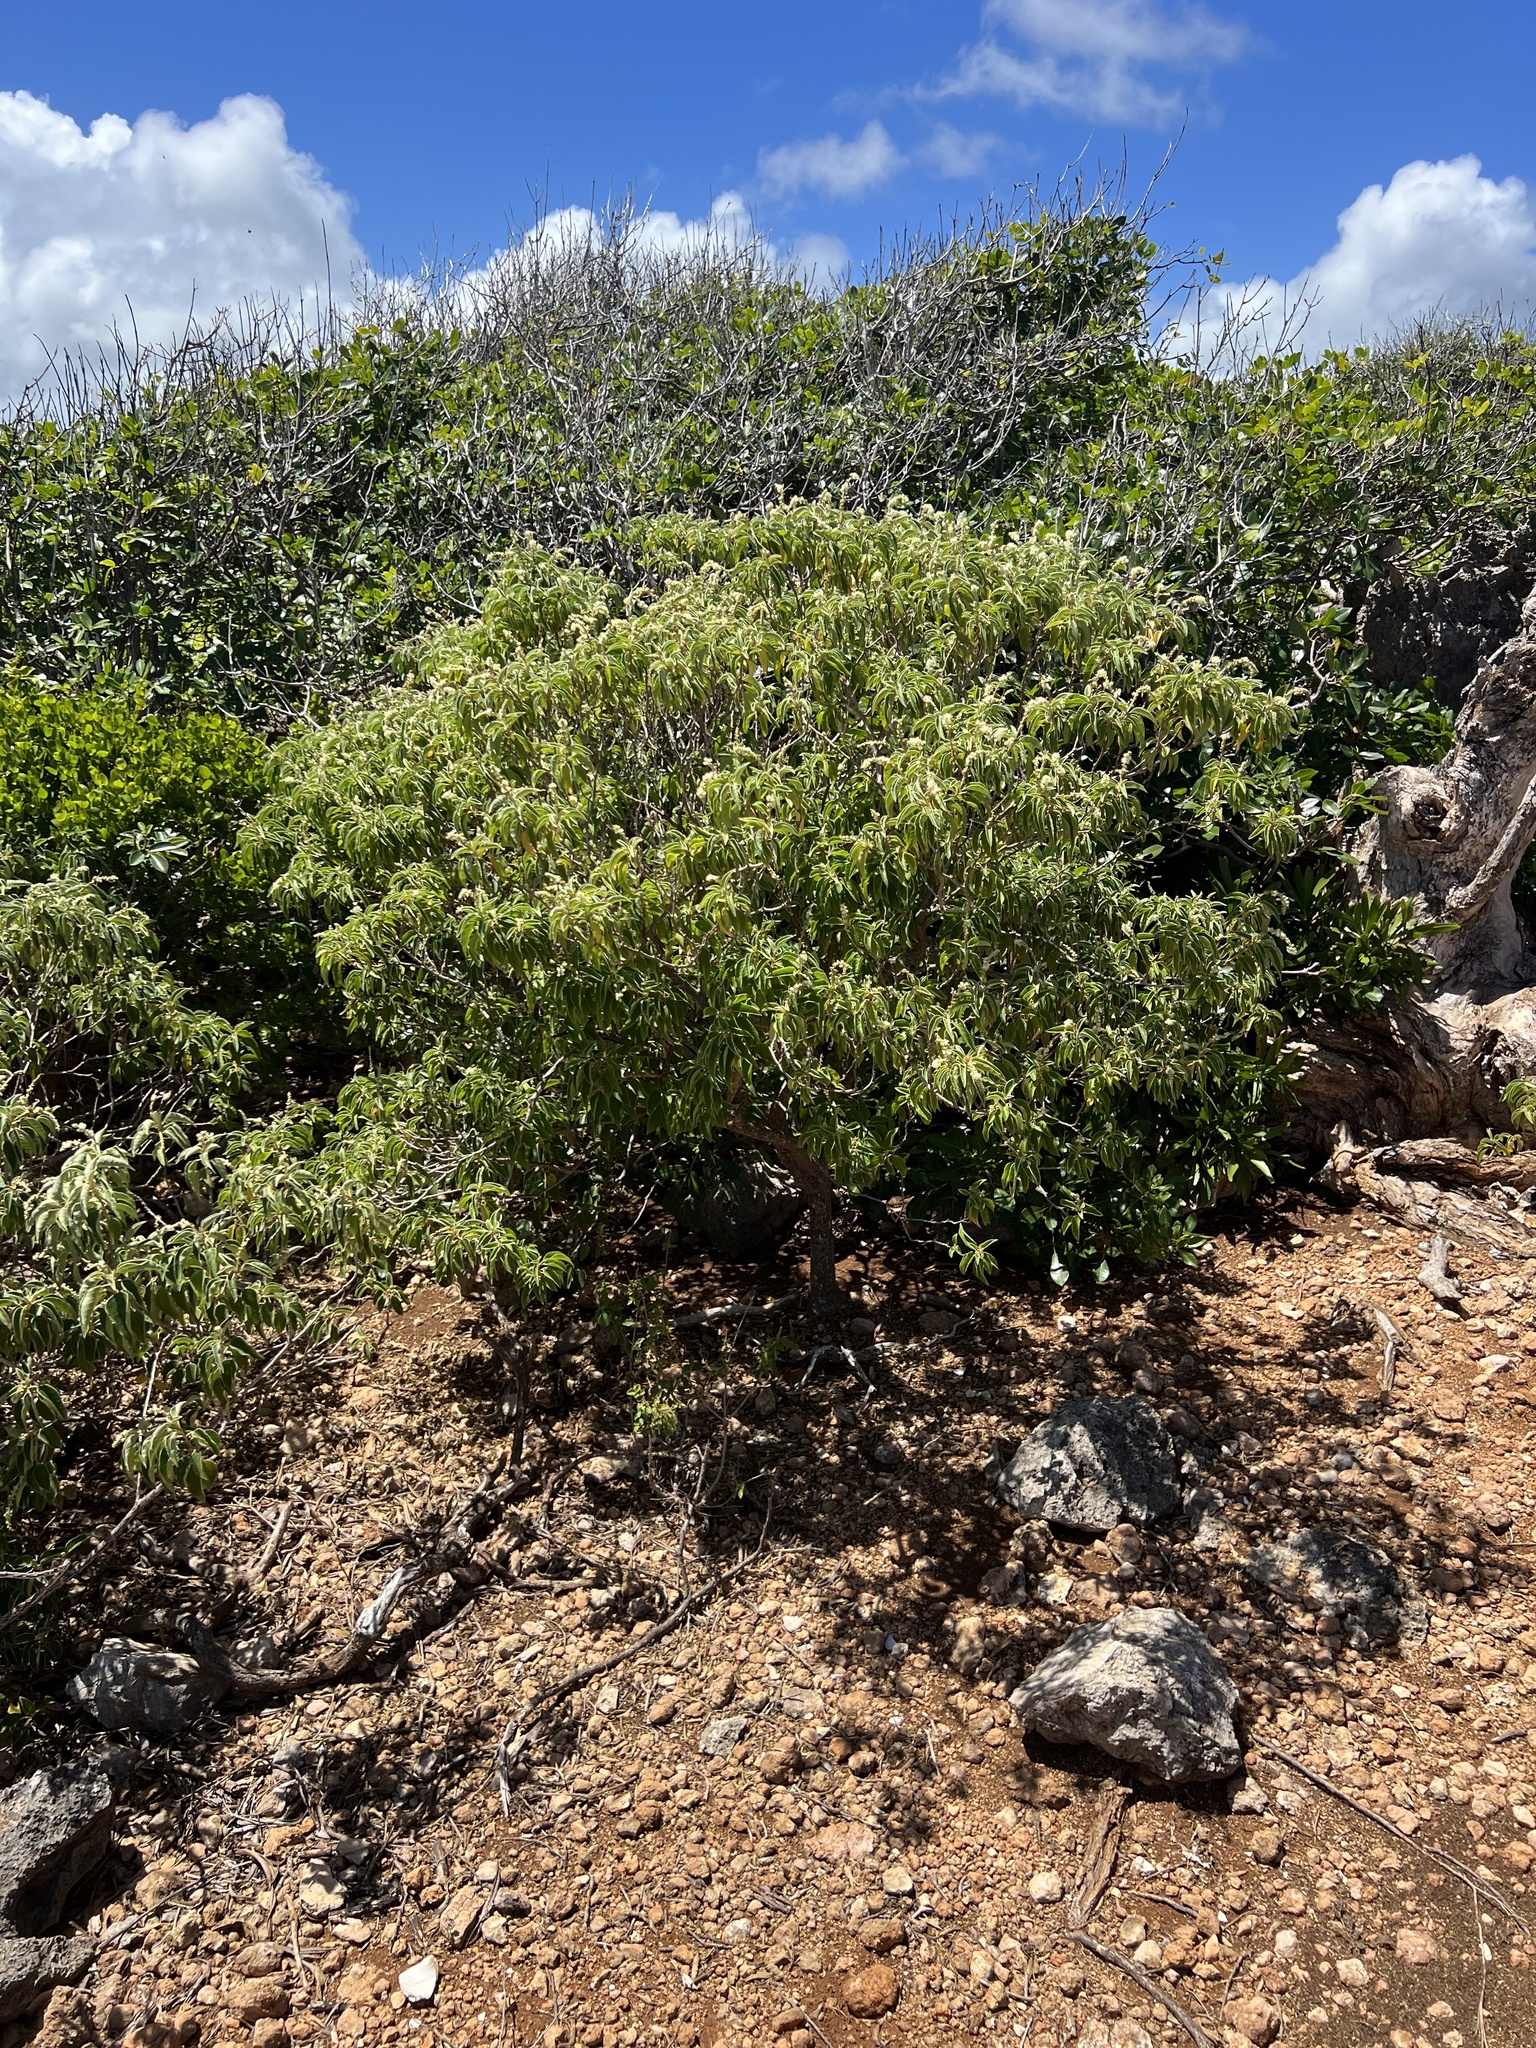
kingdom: Plantae
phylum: Tracheophyta
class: Magnoliopsida
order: Malpighiales
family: Euphorbiaceae
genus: Croton
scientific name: Croton flavens
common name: Yellow balsam
